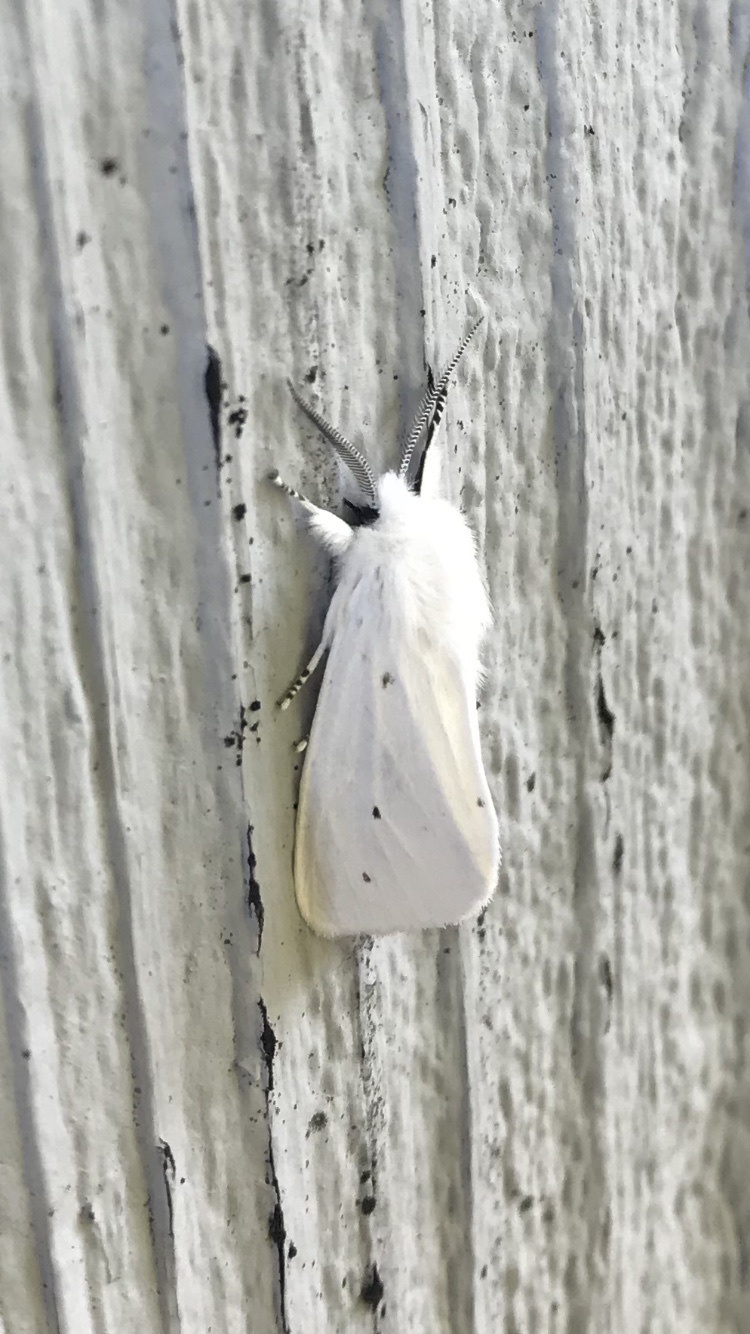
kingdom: Animalia
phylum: Arthropoda
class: Insecta
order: Lepidoptera
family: Erebidae
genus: Spilosoma
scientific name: Spilosoma virginica
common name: Virginia tiger moth
